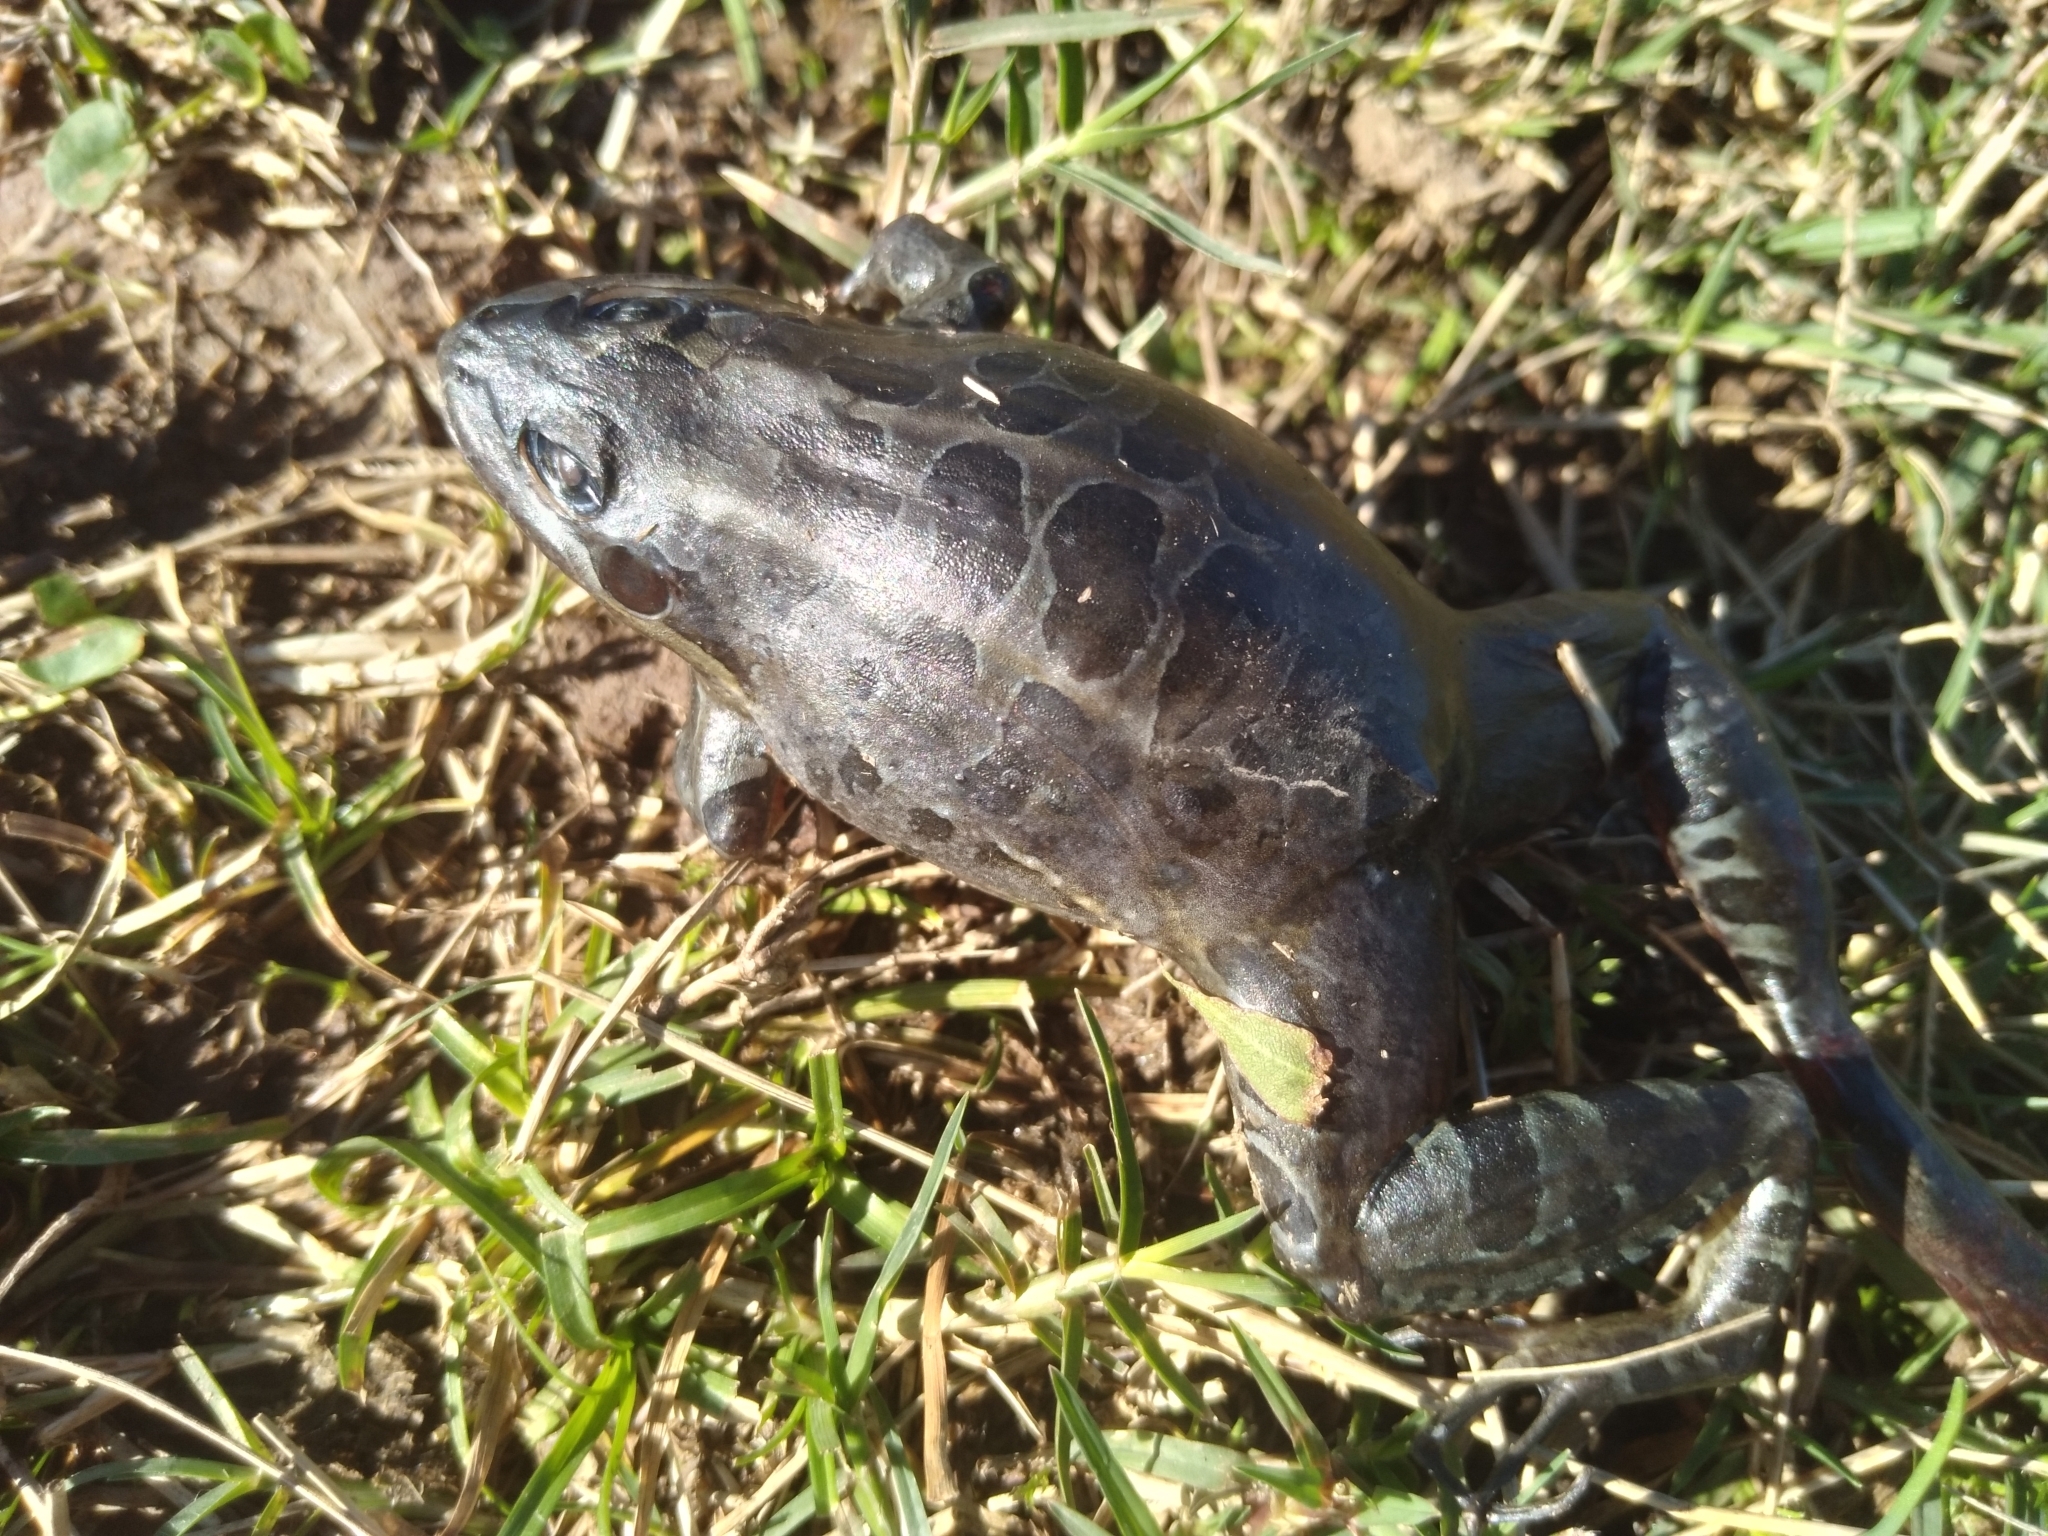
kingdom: Animalia
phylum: Chordata
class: Amphibia
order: Anura
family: Leptodactylidae
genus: Leptodactylus
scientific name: Leptodactylus luctator
